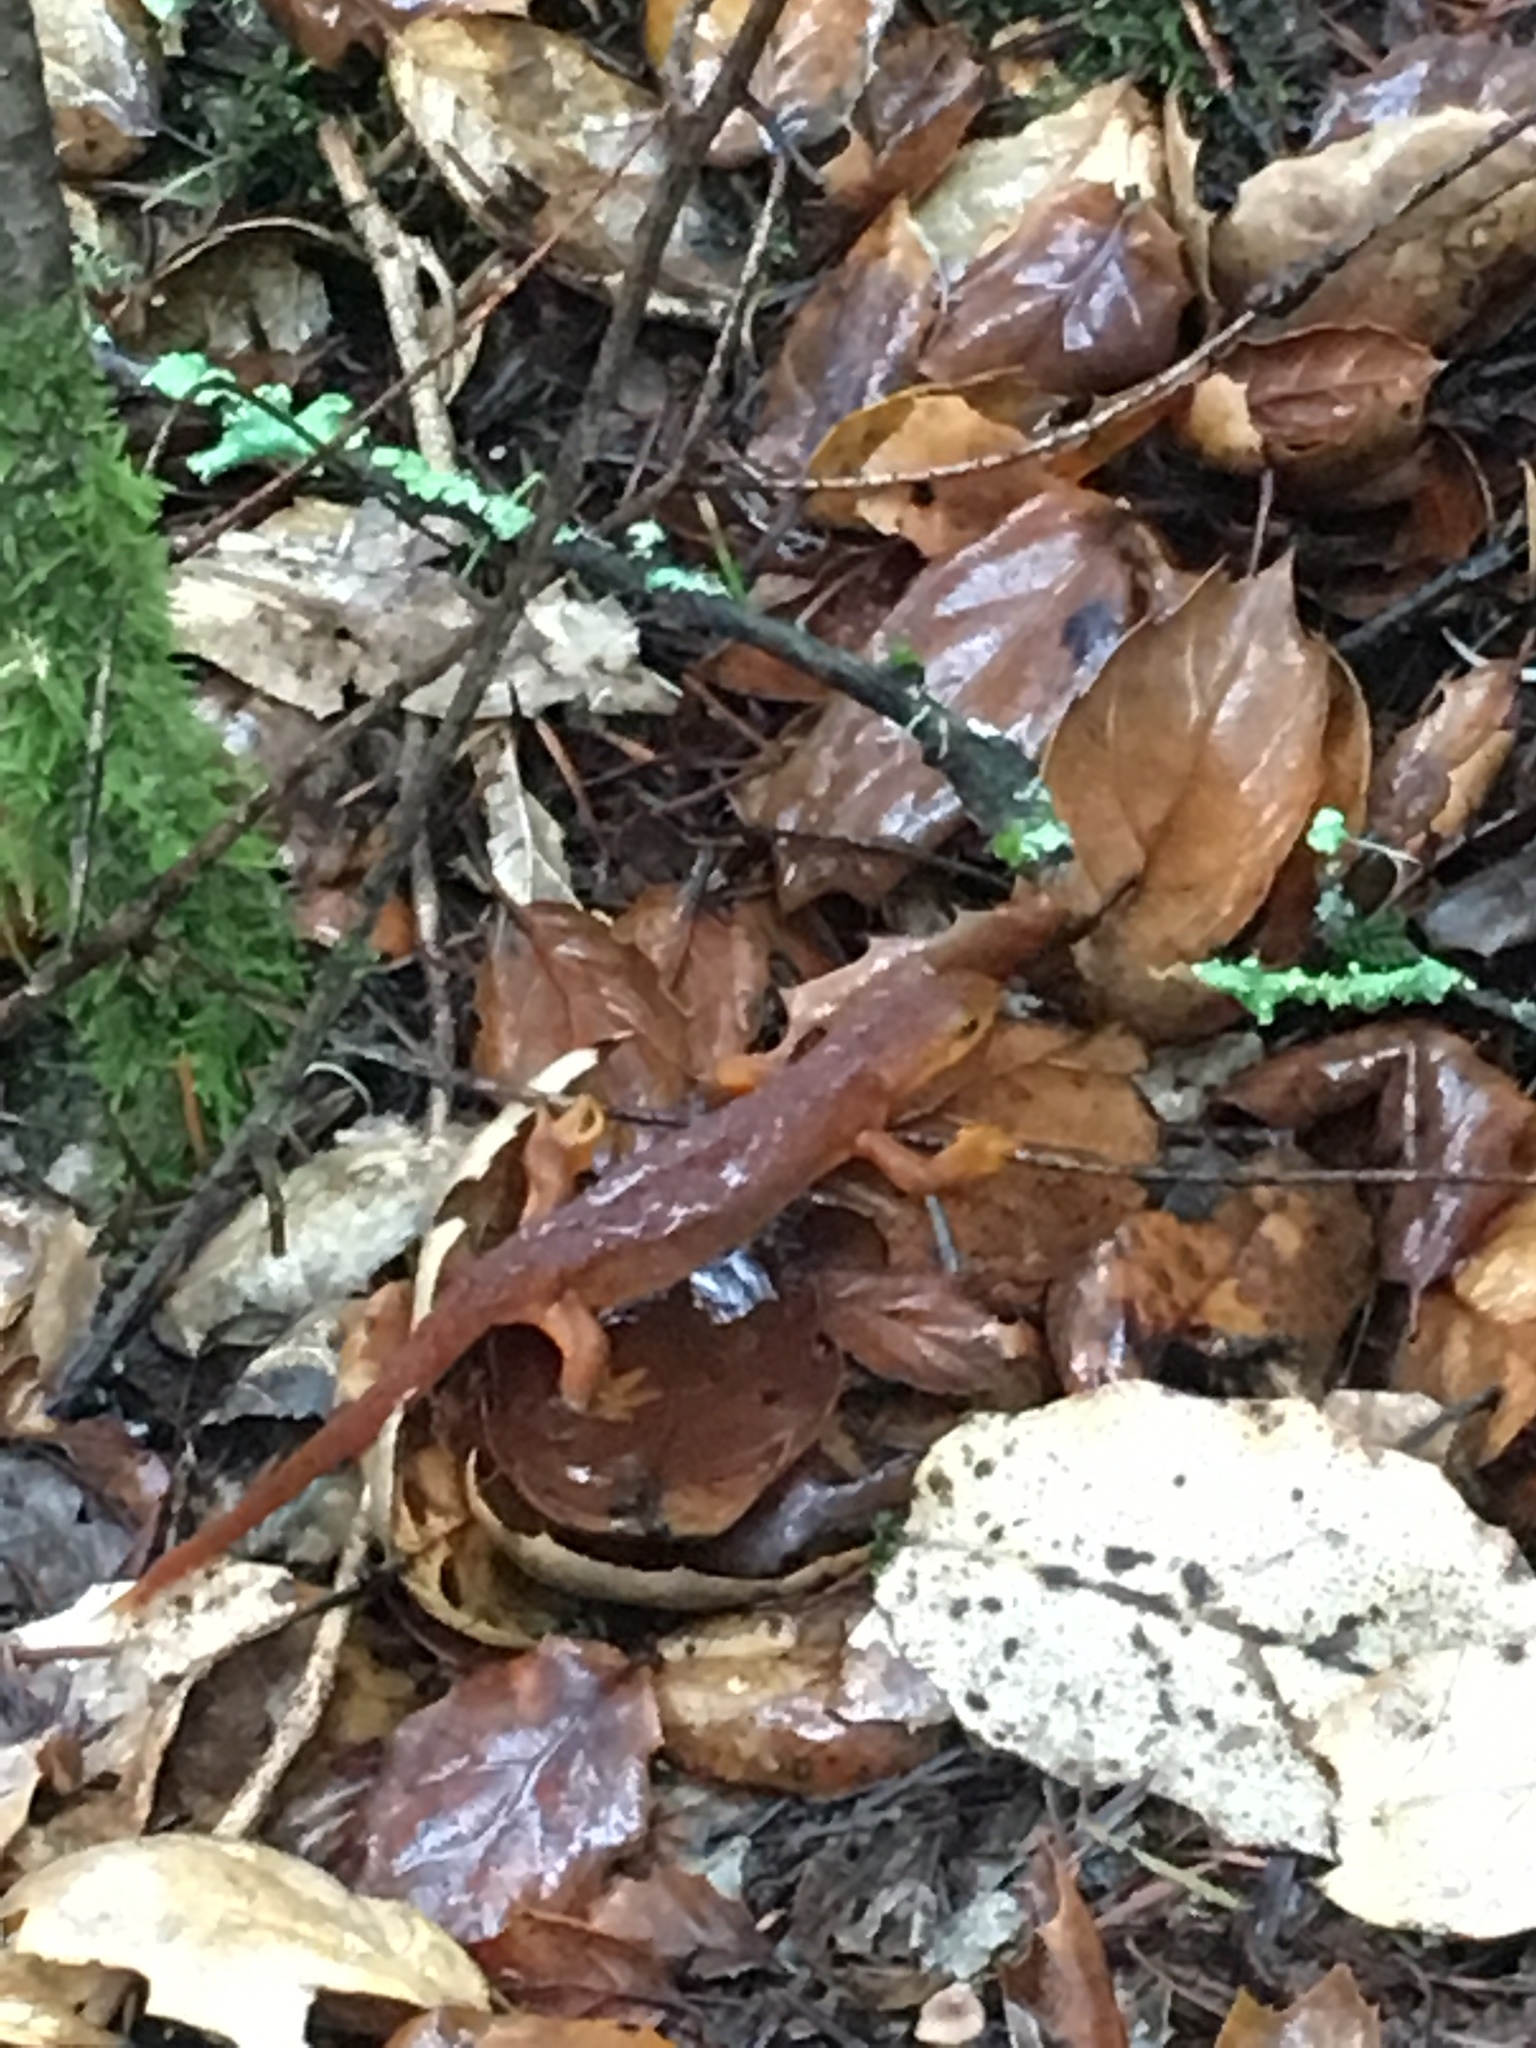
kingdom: Animalia
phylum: Chordata
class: Amphibia
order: Caudata
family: Salamandridae
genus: Taricha
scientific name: Taricha torosa
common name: California newt
